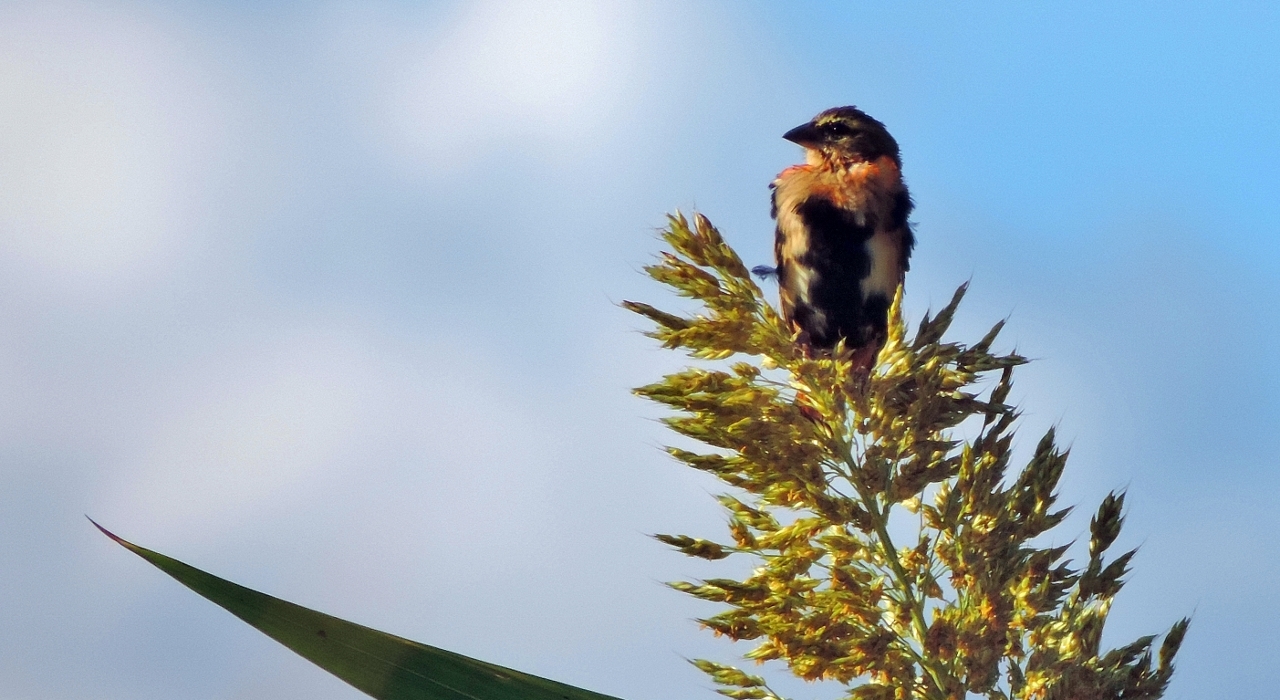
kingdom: Animalia
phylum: Chordata
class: Aves
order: Passeriformes
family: Ploceidae
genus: Euplectes
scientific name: Euplectes orix
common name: Southern red bishop
